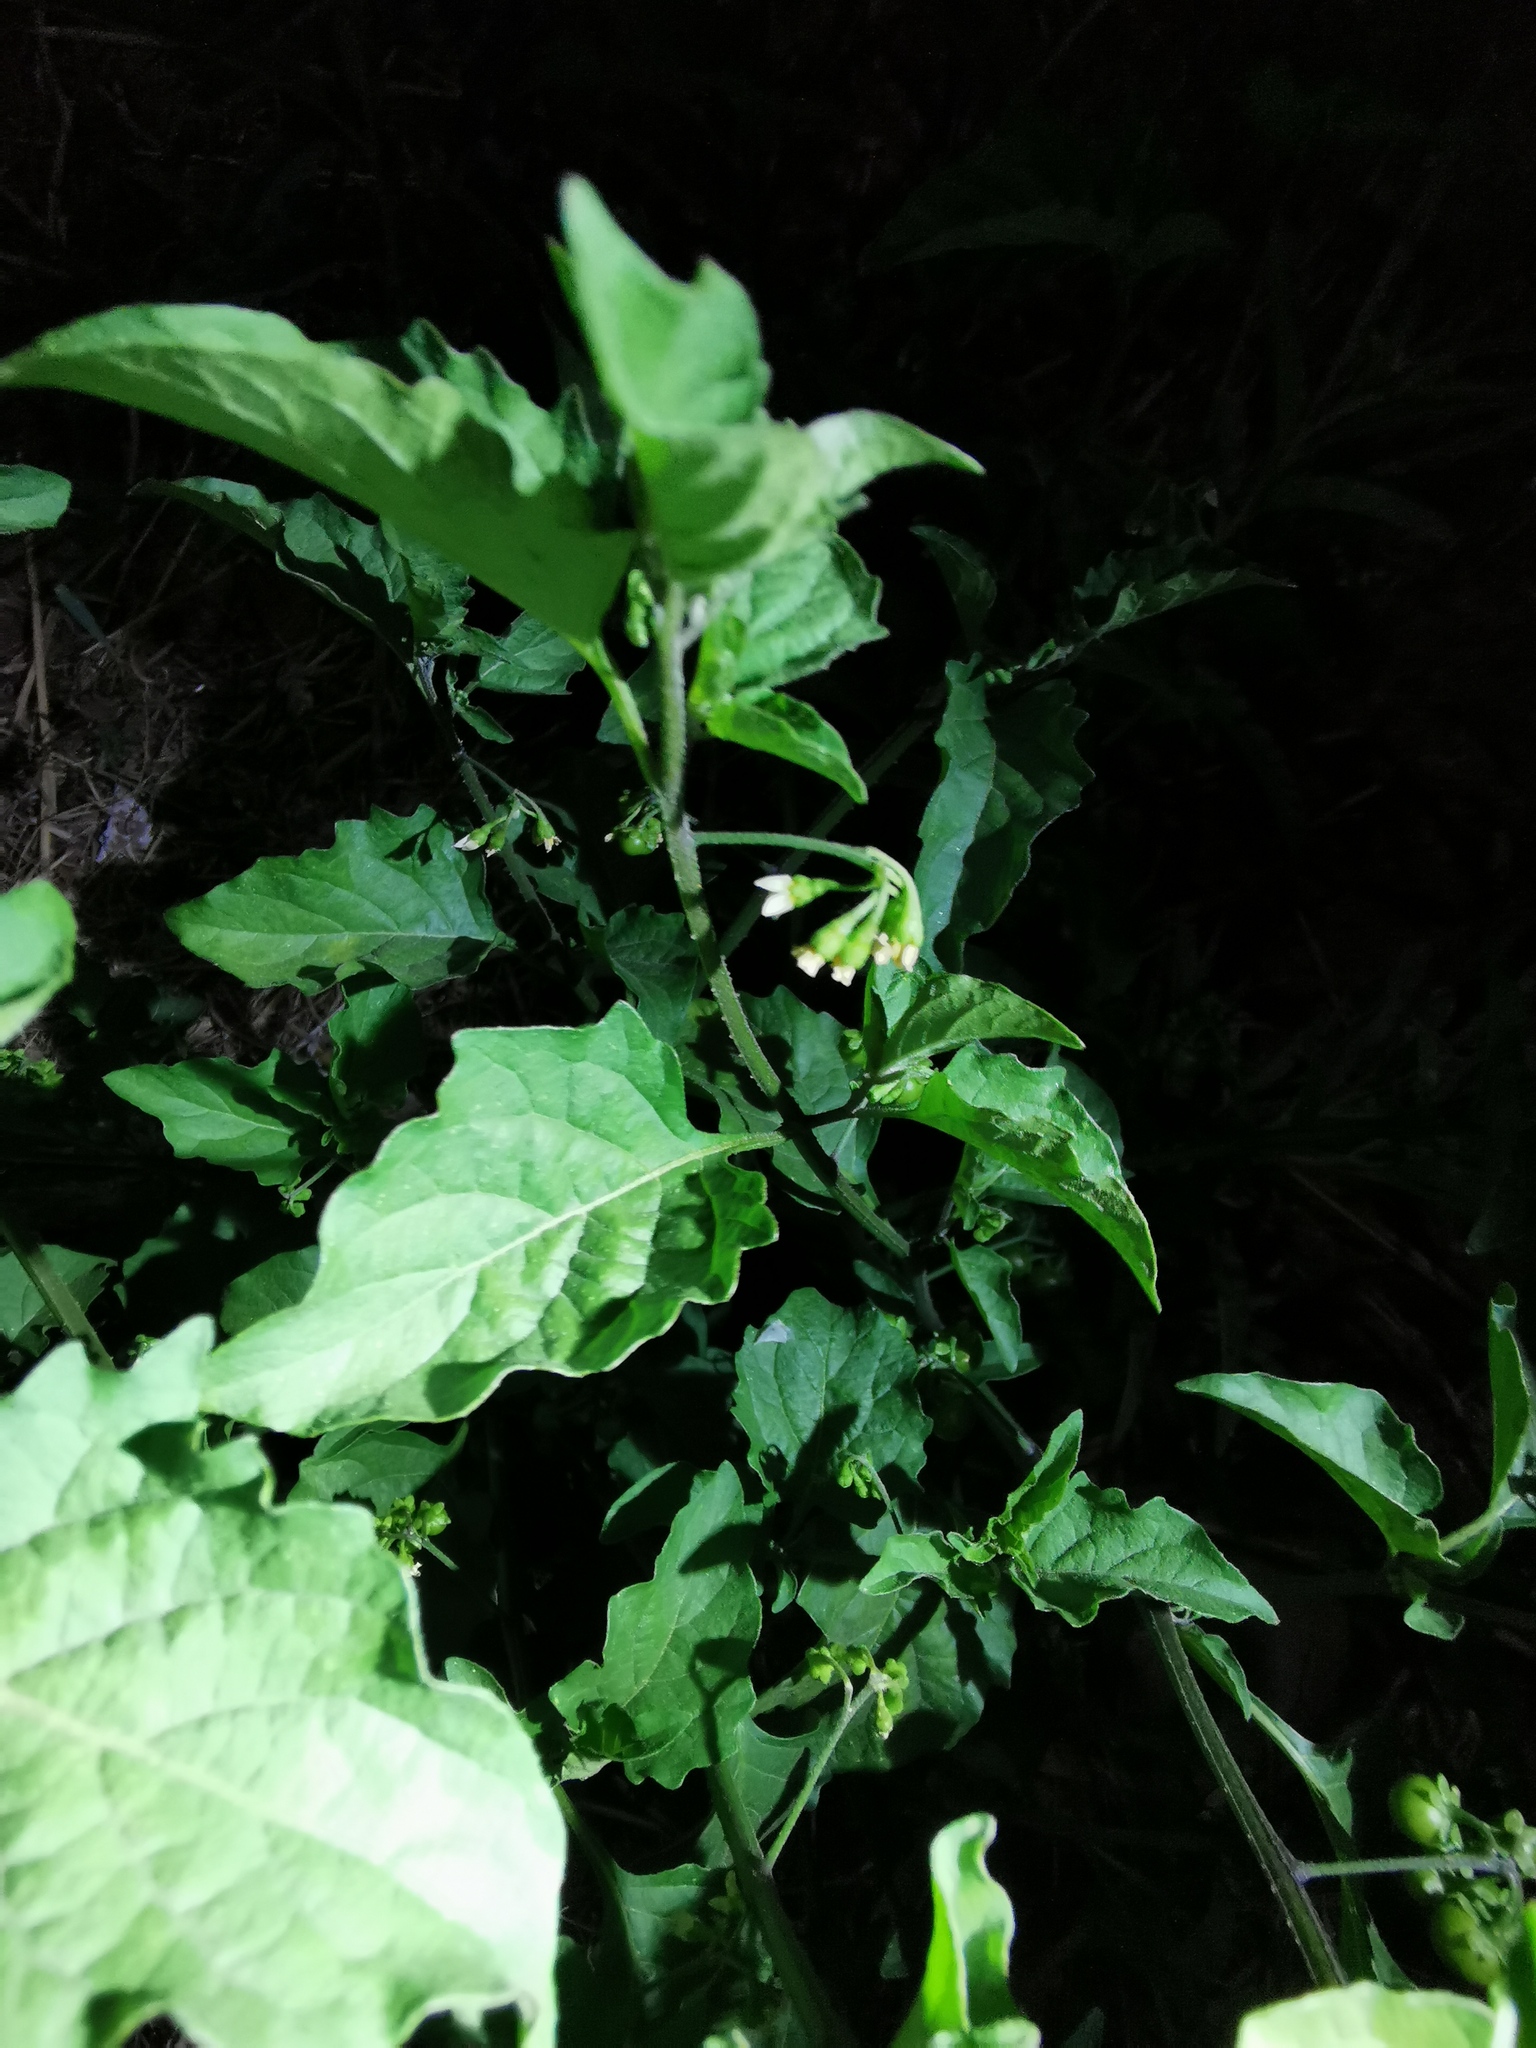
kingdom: Plantae
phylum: Tracheophyta
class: Magnoliopsida
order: Solanales
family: Solanaceae
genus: Solanum
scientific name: Solanum nigrescens
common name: Divine nightshade
